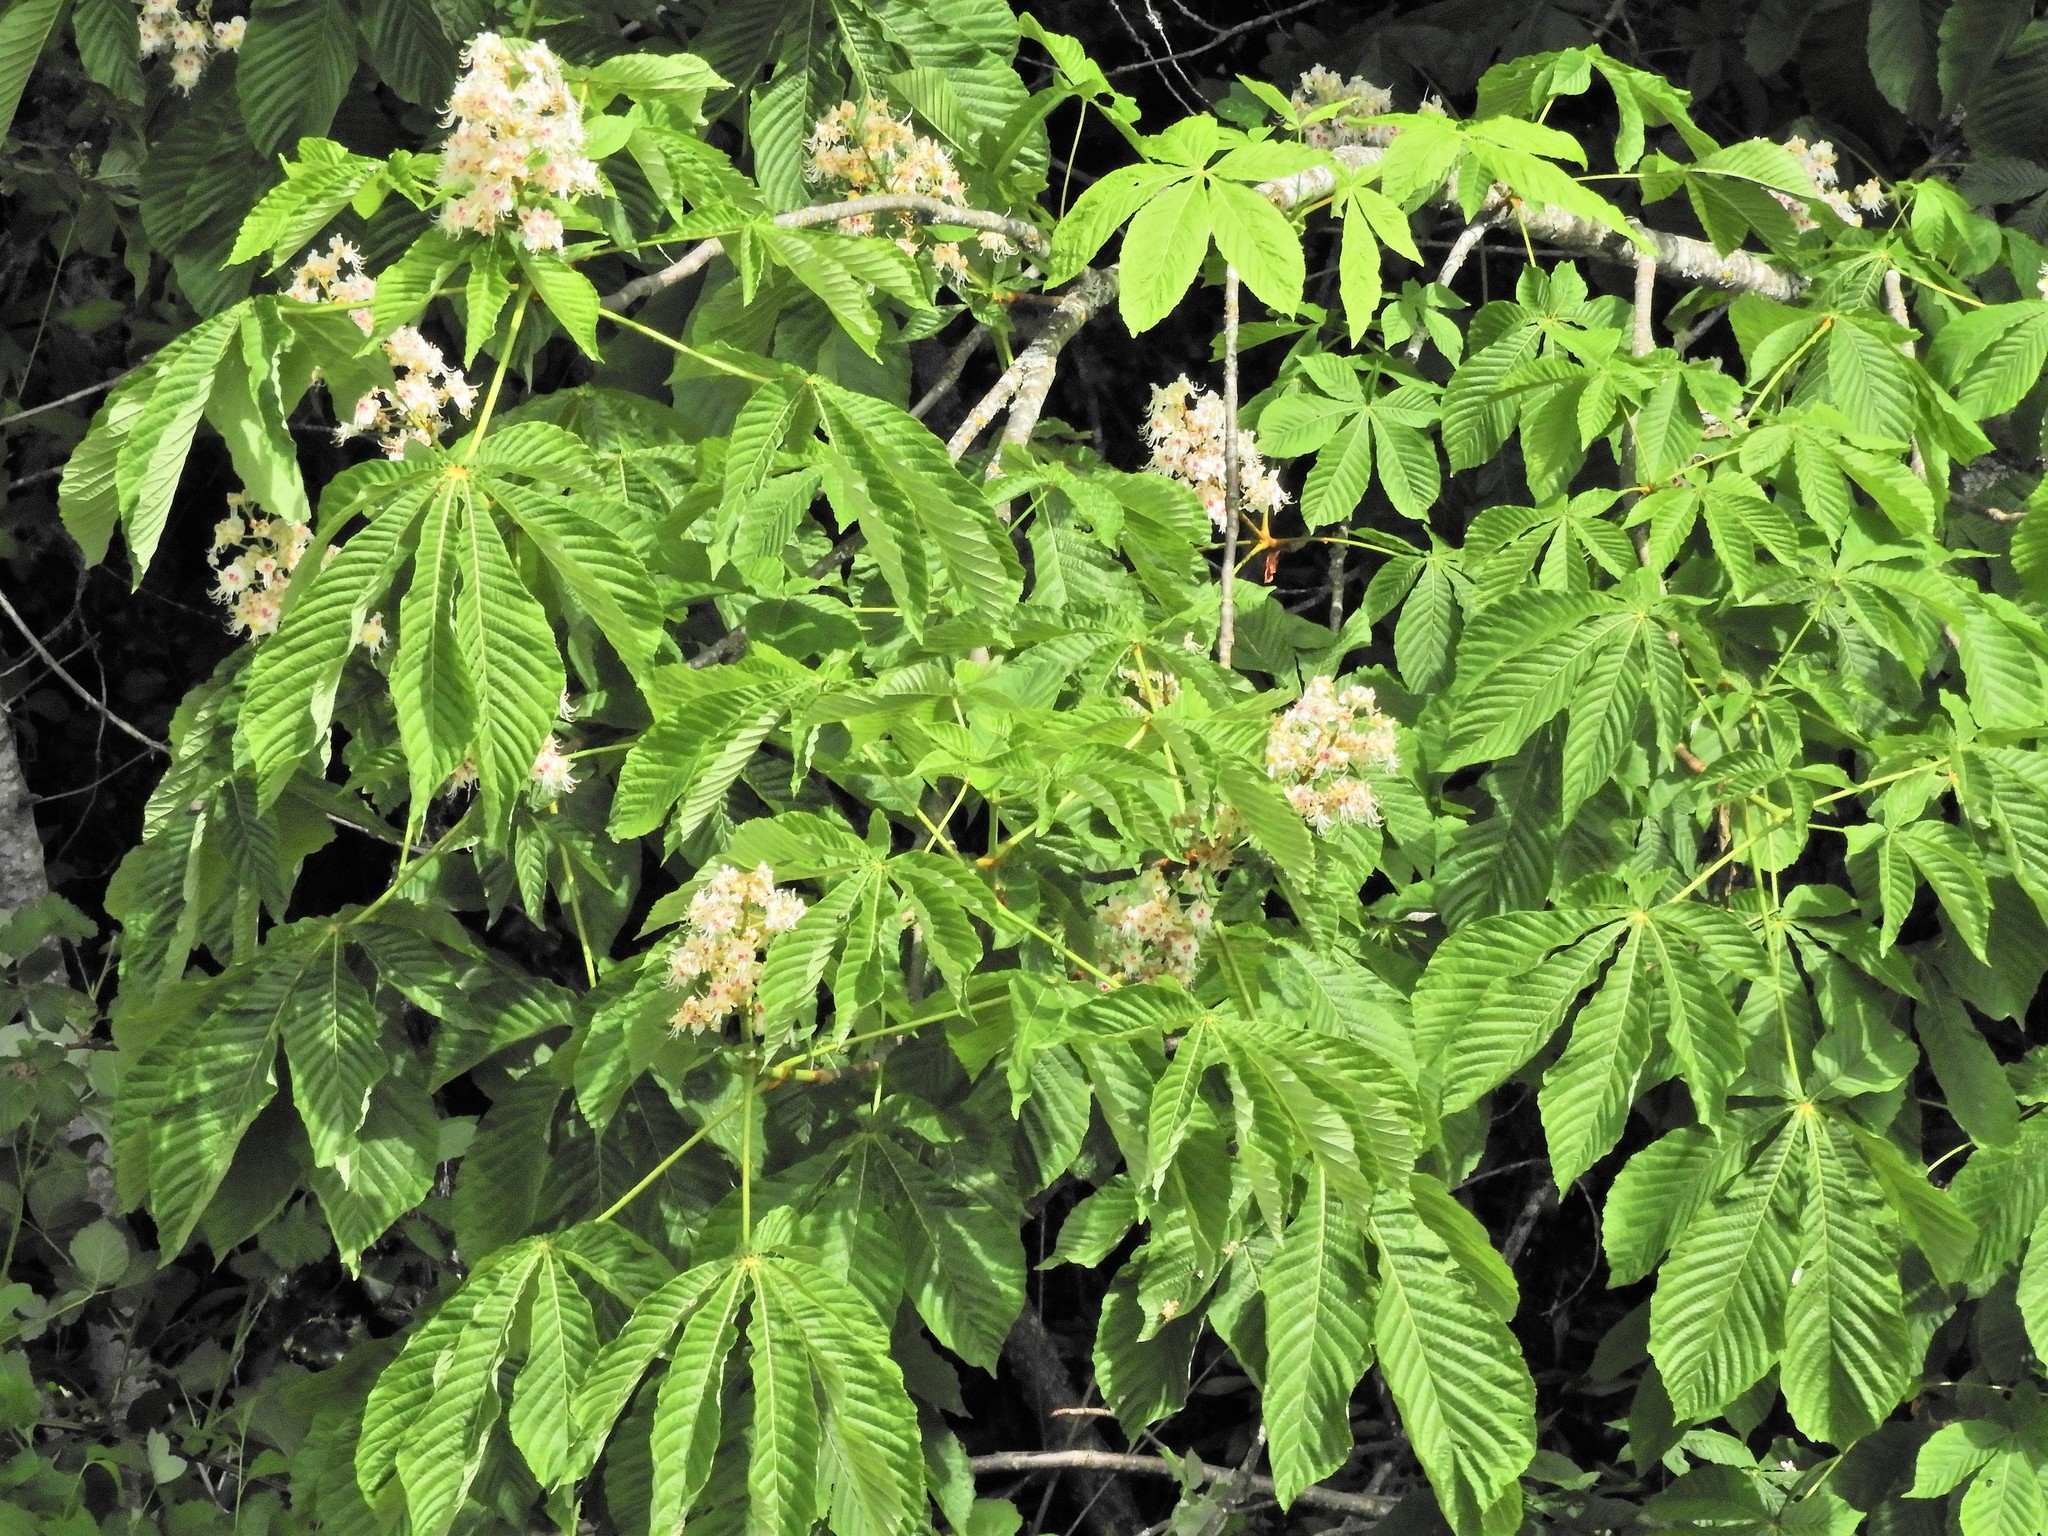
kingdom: Plantae
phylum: Tracheophyta
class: Magnoliopsida
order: Sapindales
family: Sapindaceae
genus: Aesculus
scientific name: Aesculus hippocastanum
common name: Horse-chestnut
